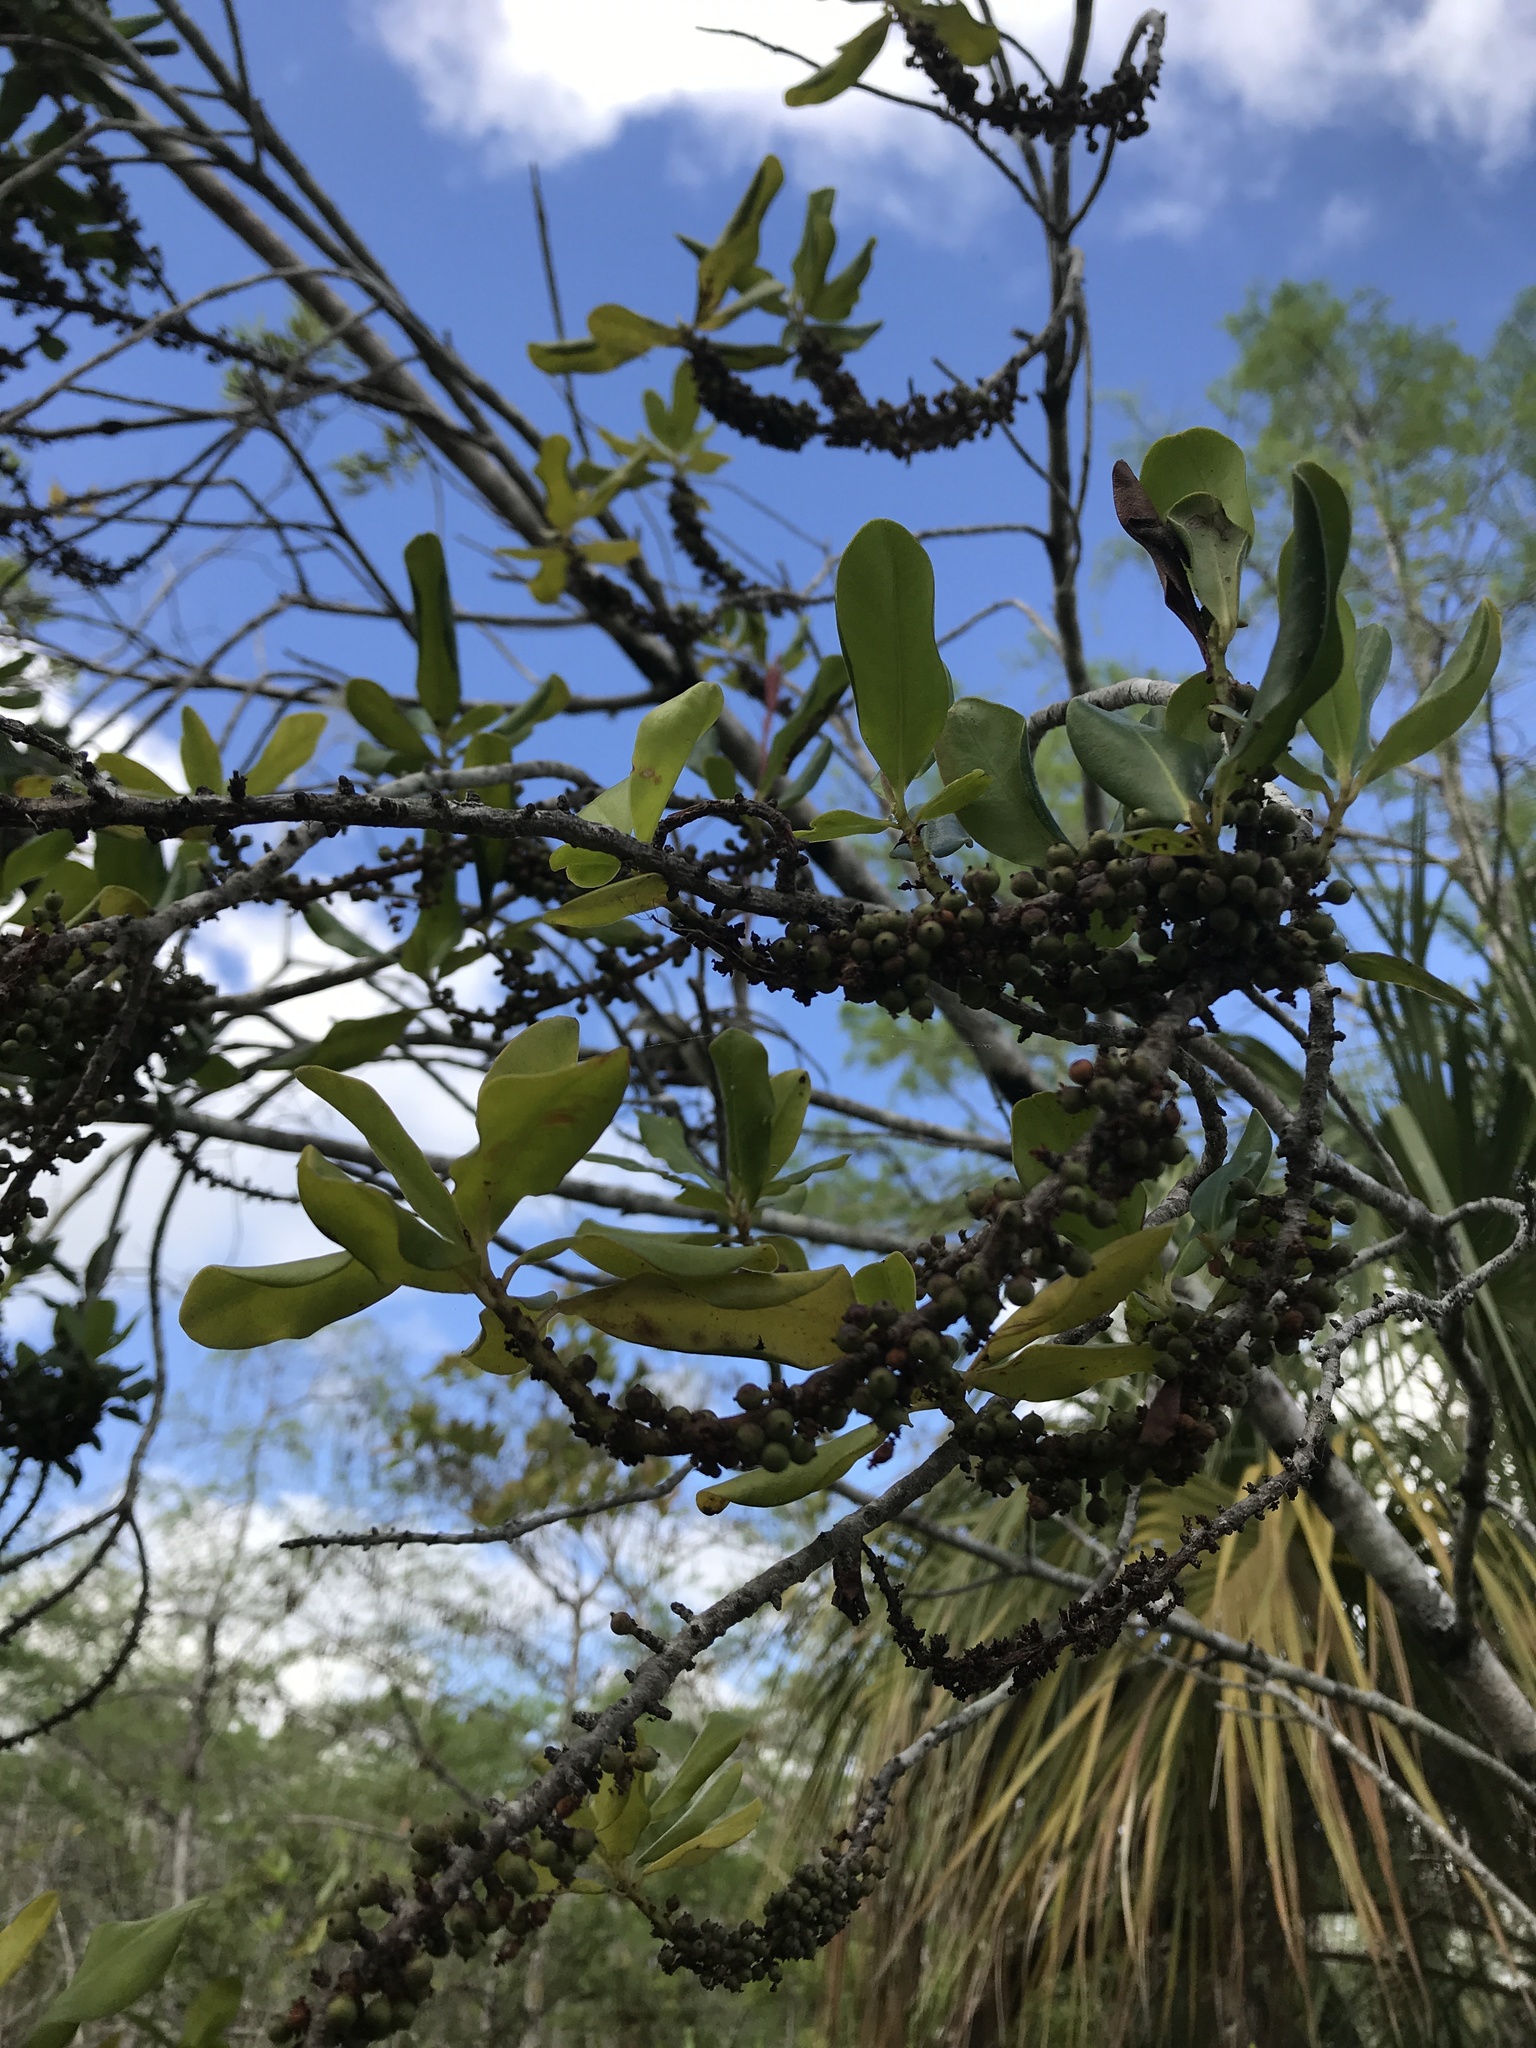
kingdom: Plantae
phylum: Tracheophyta
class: Magnoliopsida
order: Ericales
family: Primulaceae
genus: Myrsine
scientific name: Myrsine floridana
